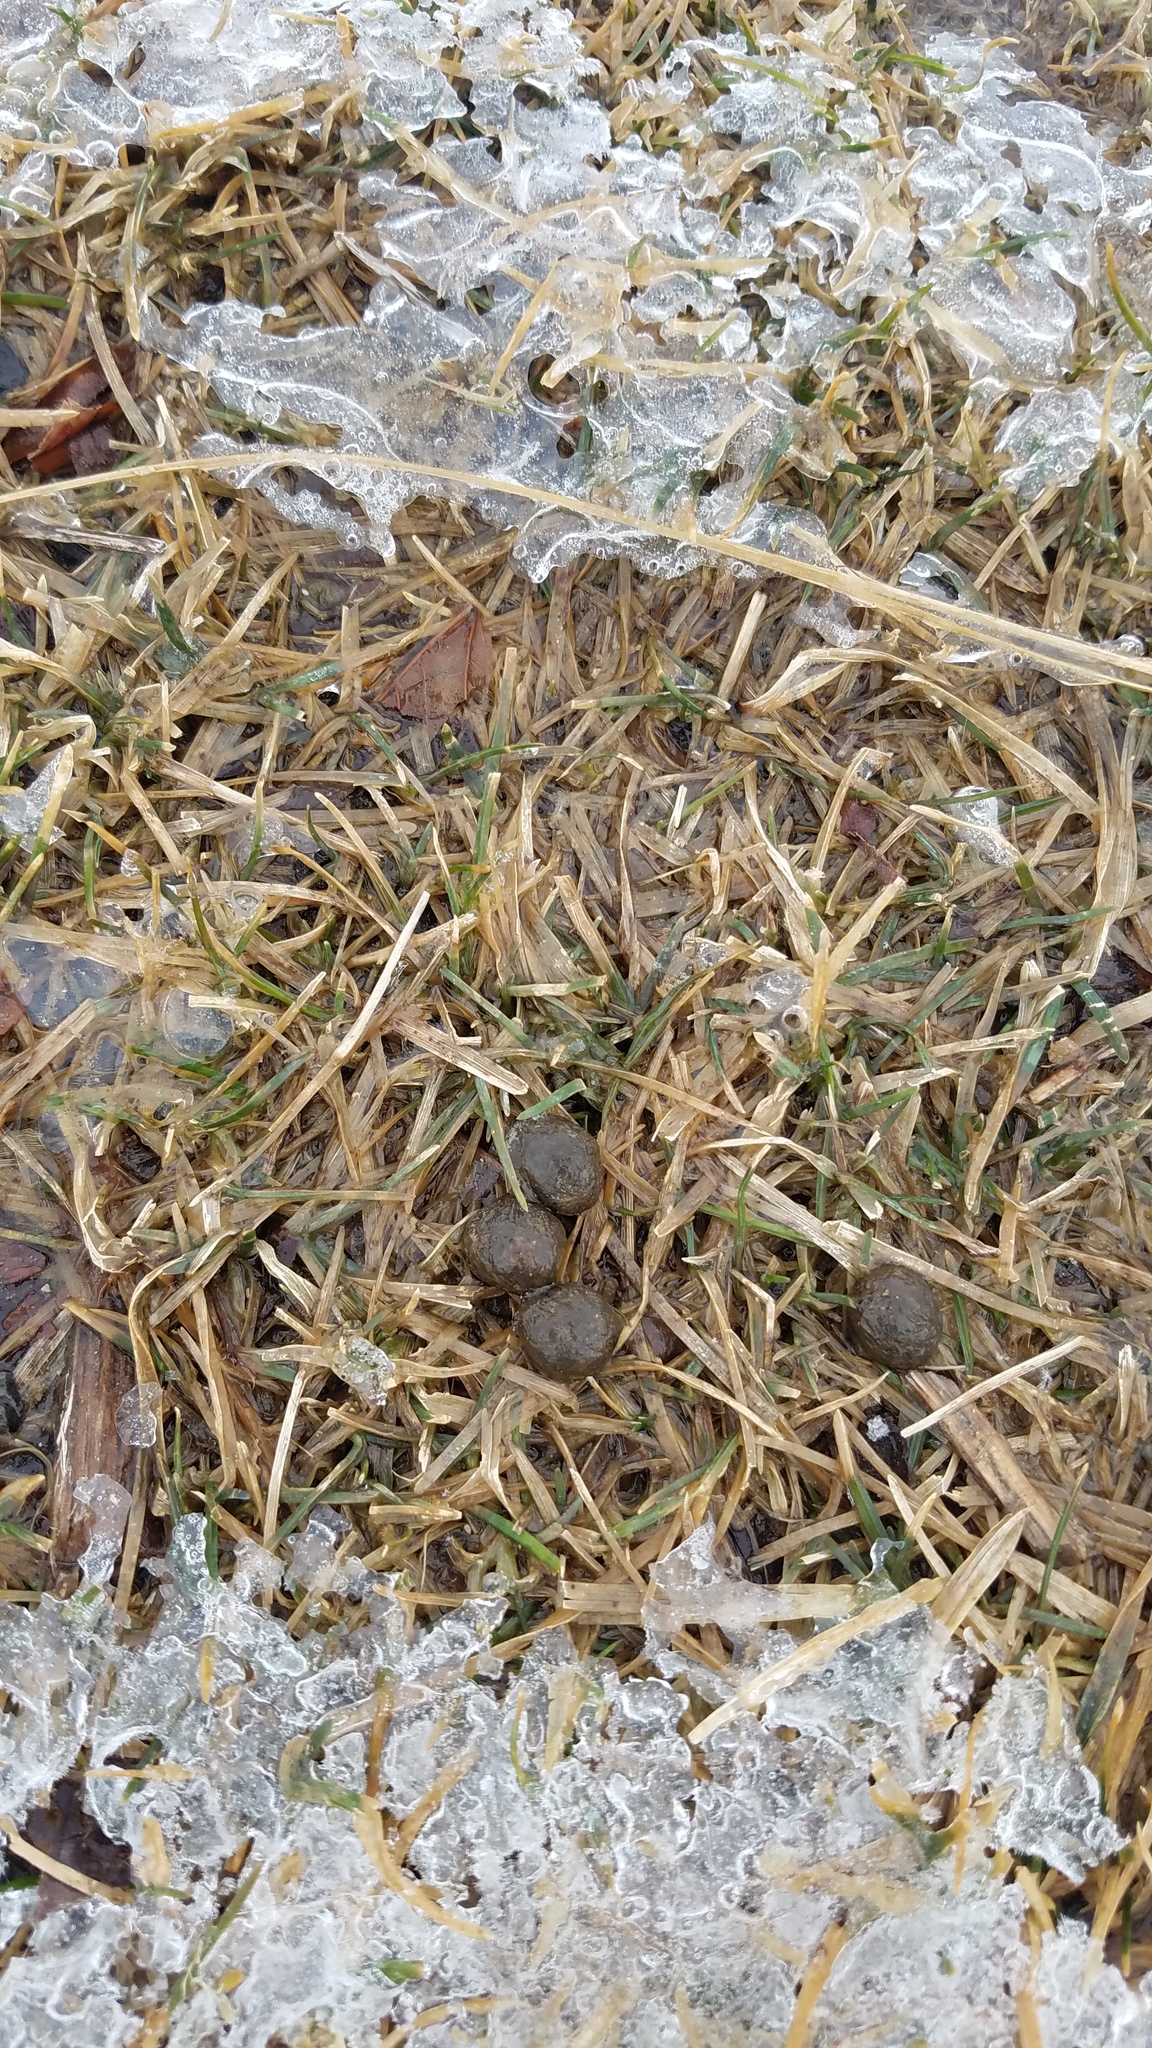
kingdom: Animalia
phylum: Chordata
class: Mammalia
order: Lagomorpha
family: Leporidae
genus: Sylvilagus
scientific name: Sylvilagus floridanus
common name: Eastern cottontail
